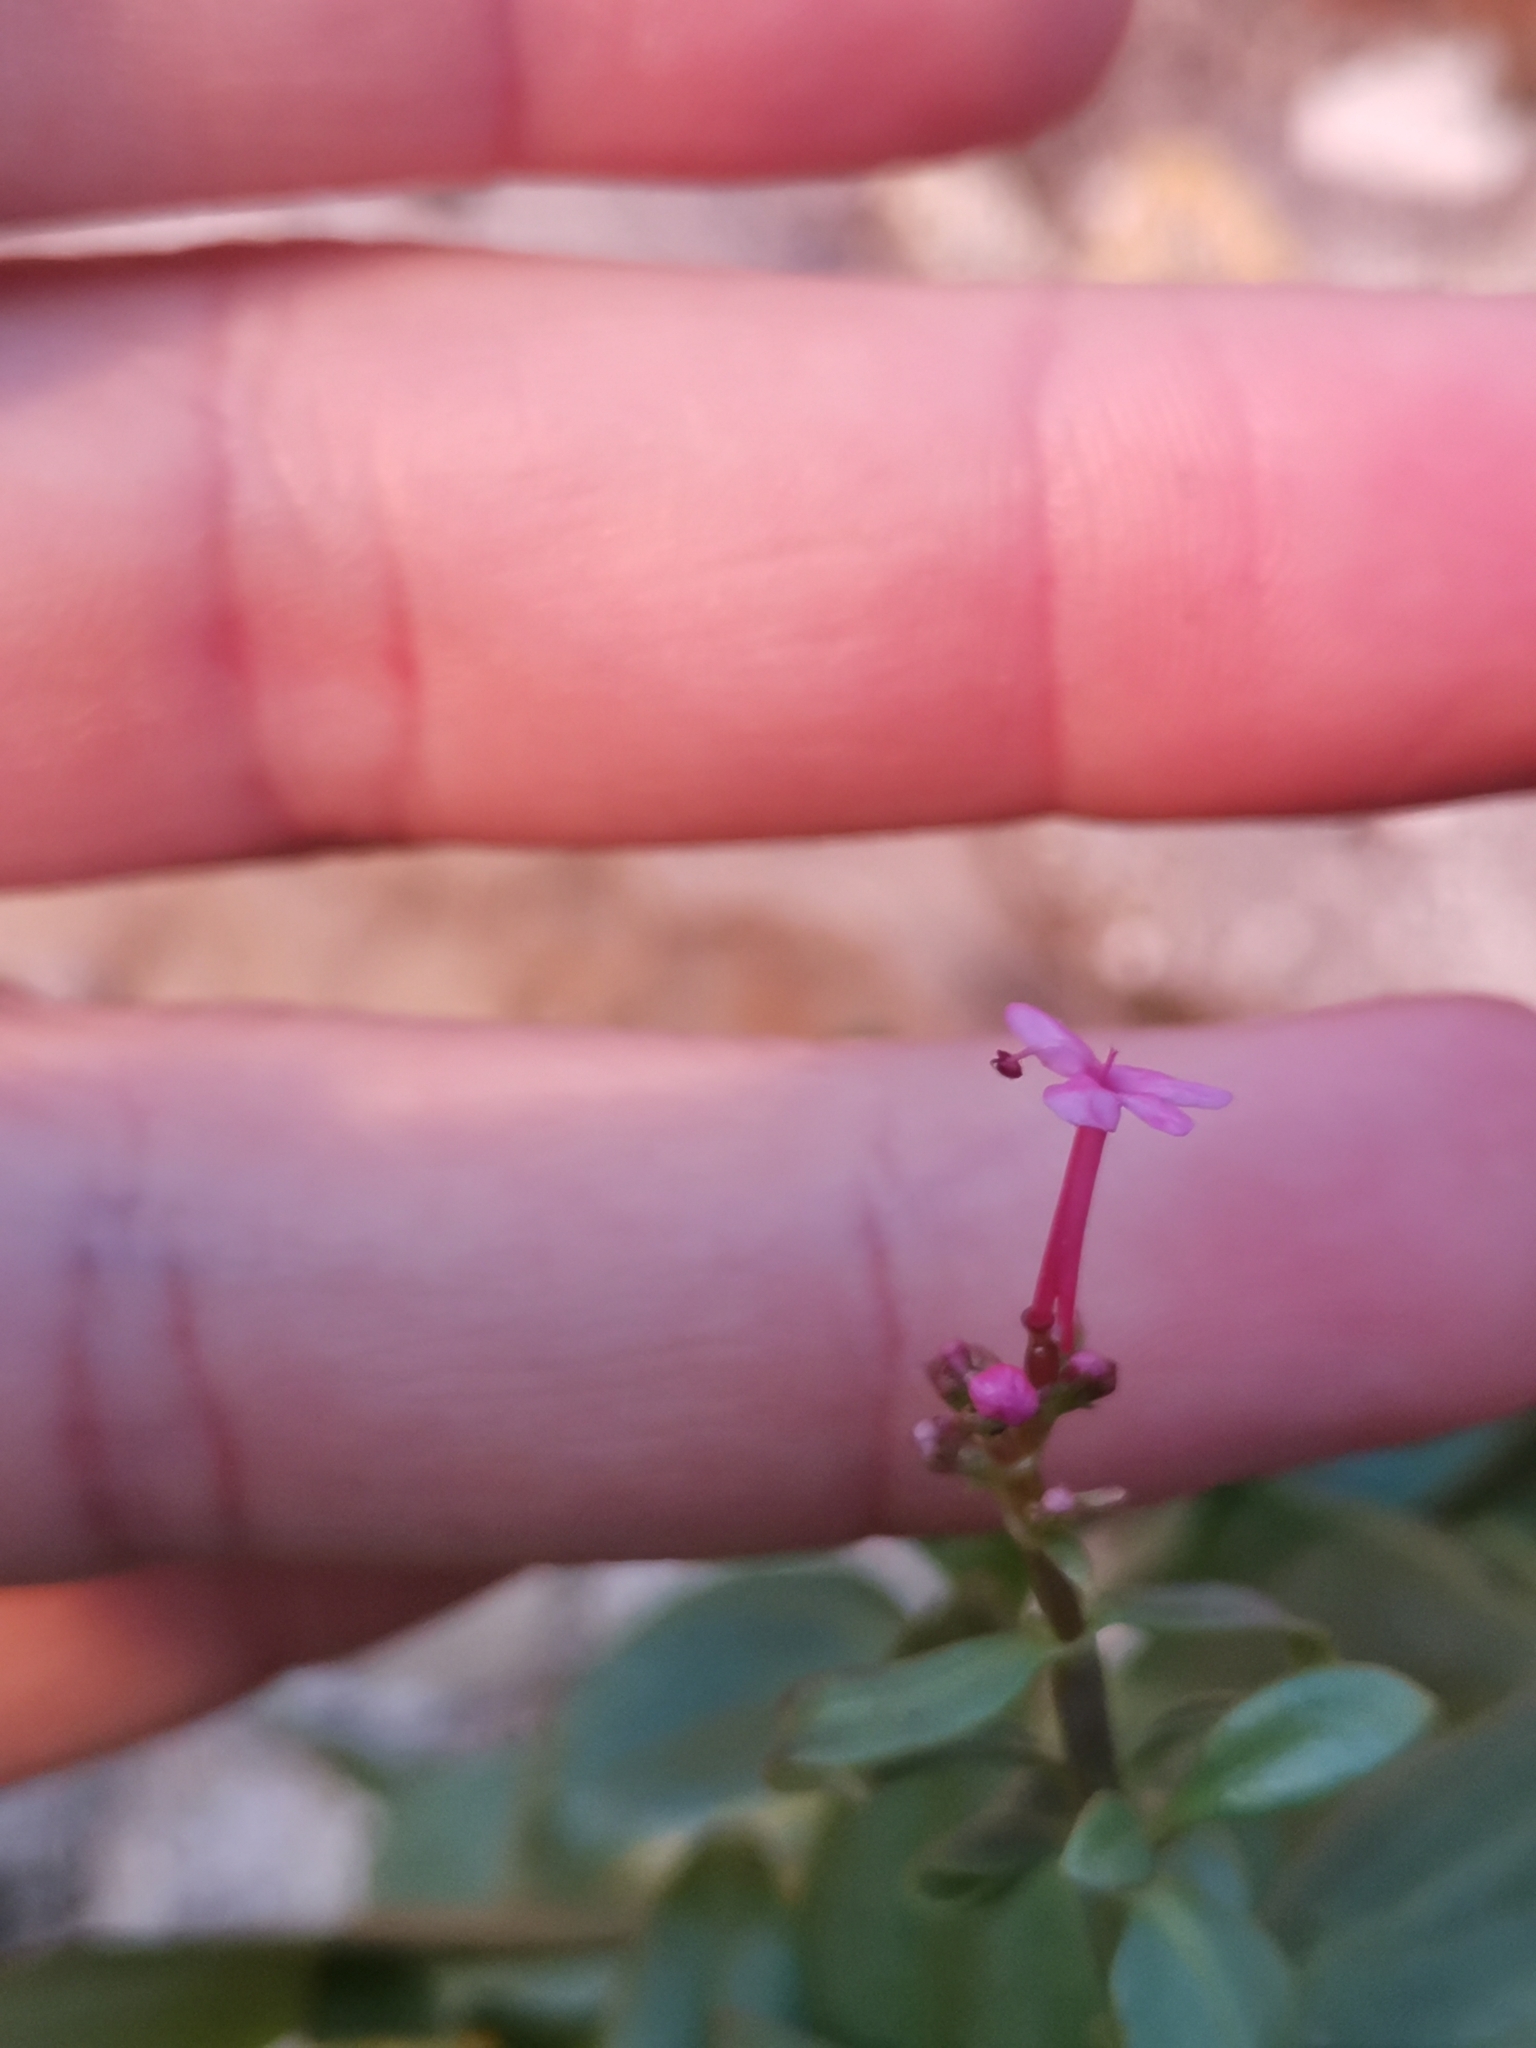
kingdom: Plantae
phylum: Tracheophyta
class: Magnoliopsida
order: Dipsacales
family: Caprifoliaceae
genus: Centranthus
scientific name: Centranthus ruber
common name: Red valerian
